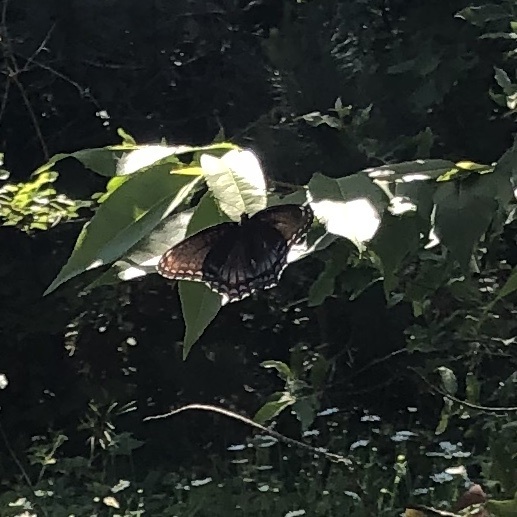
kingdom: Animalia
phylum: Arthropoda
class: Insecta
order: Lepidoptera
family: Nymphalidae
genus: Limenitis
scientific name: Limenitis astyanax
